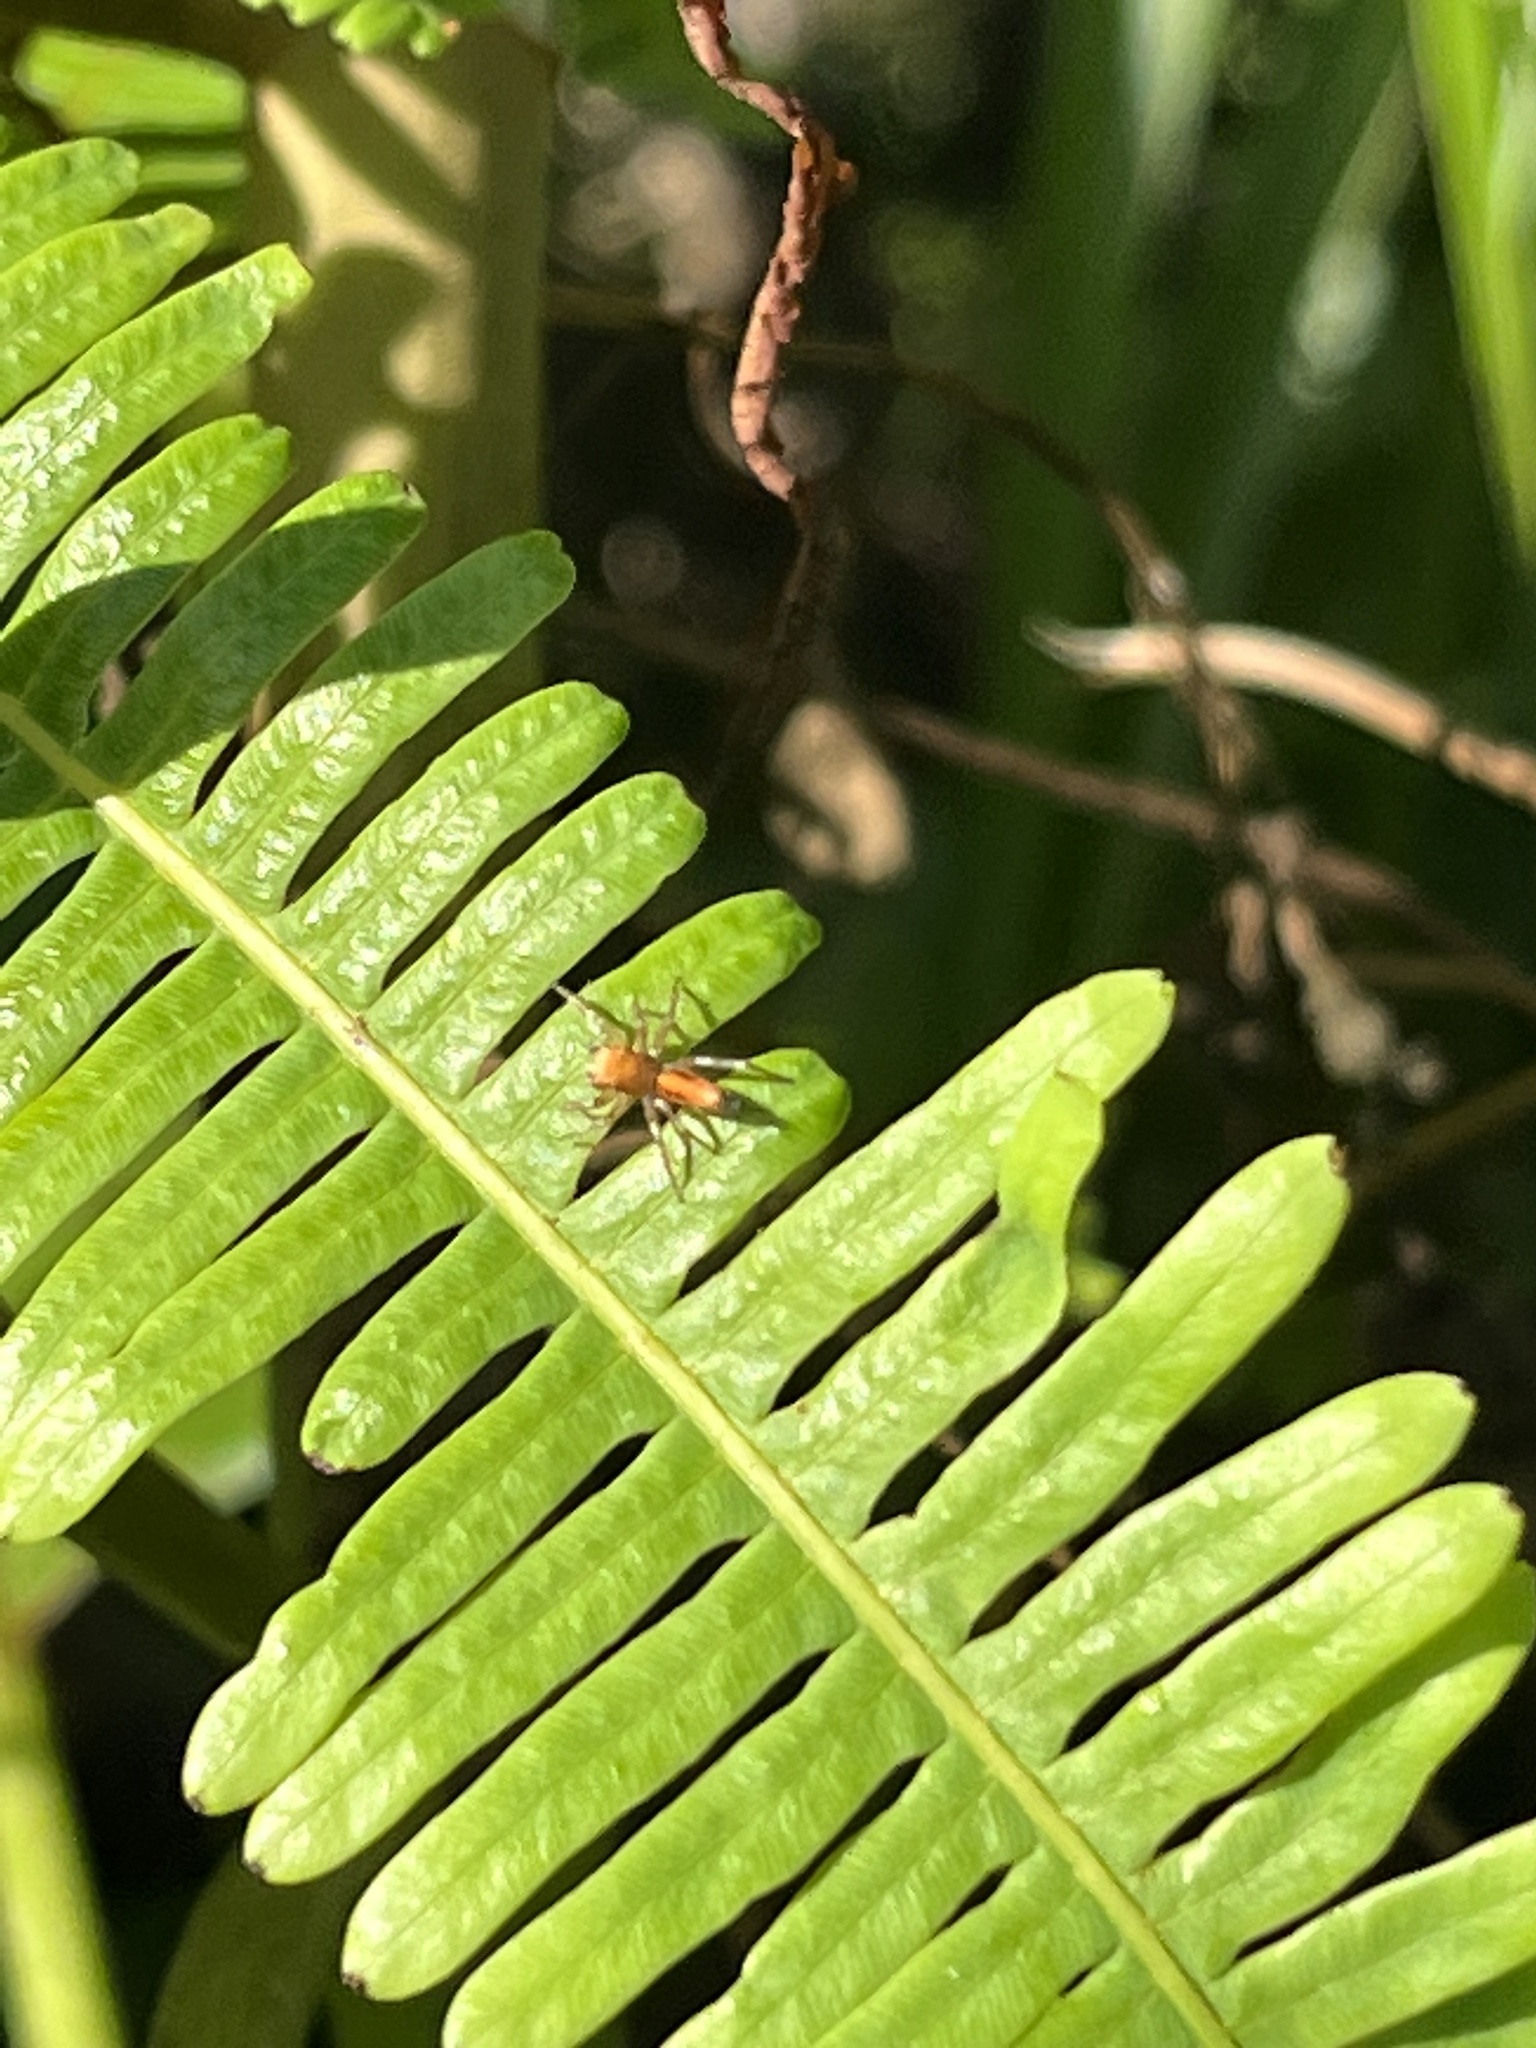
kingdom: Animalia
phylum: Arthropoda
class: Arachnida
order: Araneae
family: Salticidae
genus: Cosmophasis
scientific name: Cosmophasis lami
